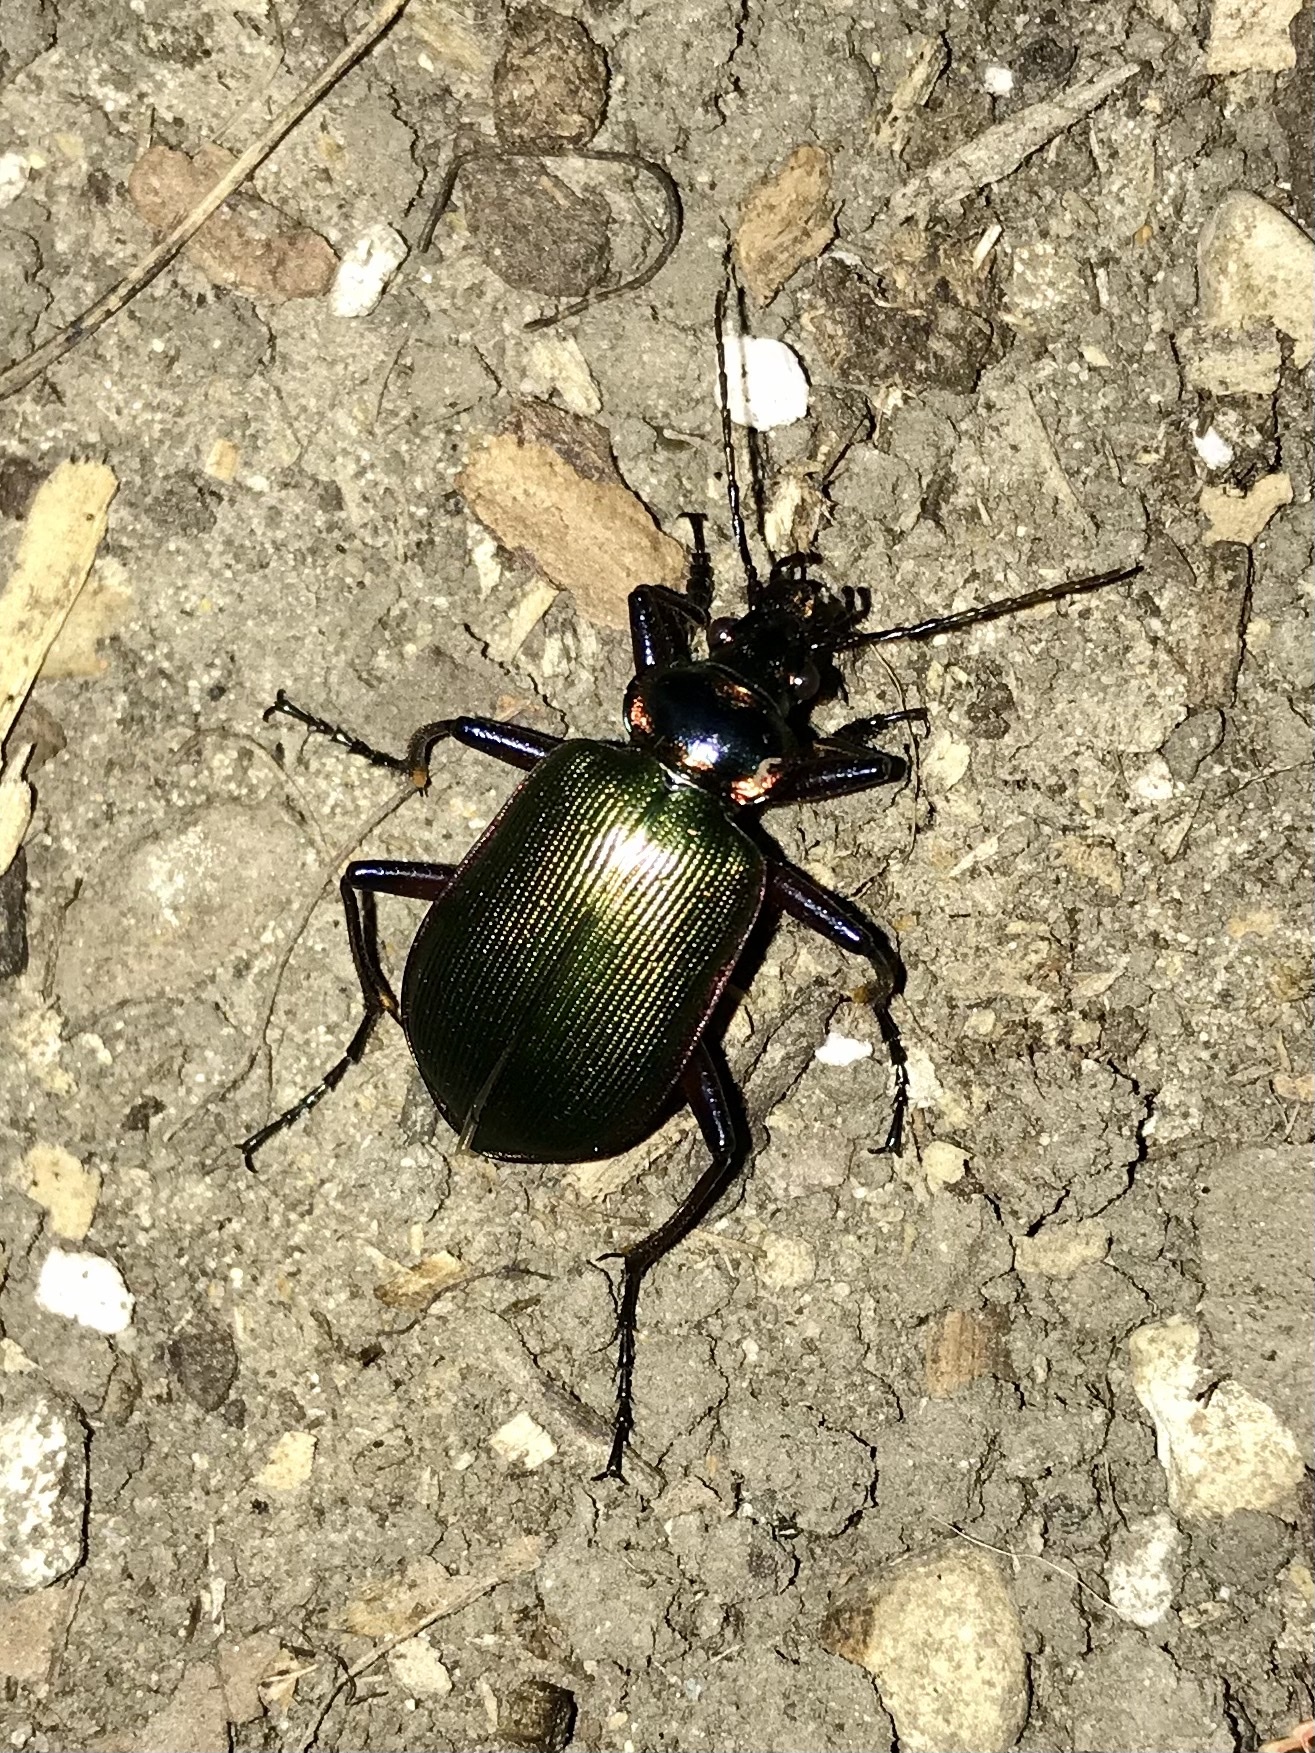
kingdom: Animalia
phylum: Arthropoda
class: Insecta
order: Coleoptera
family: Carabidae
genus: Calosoma
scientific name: Calosoma scrutator
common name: Fiery searcher beetle
